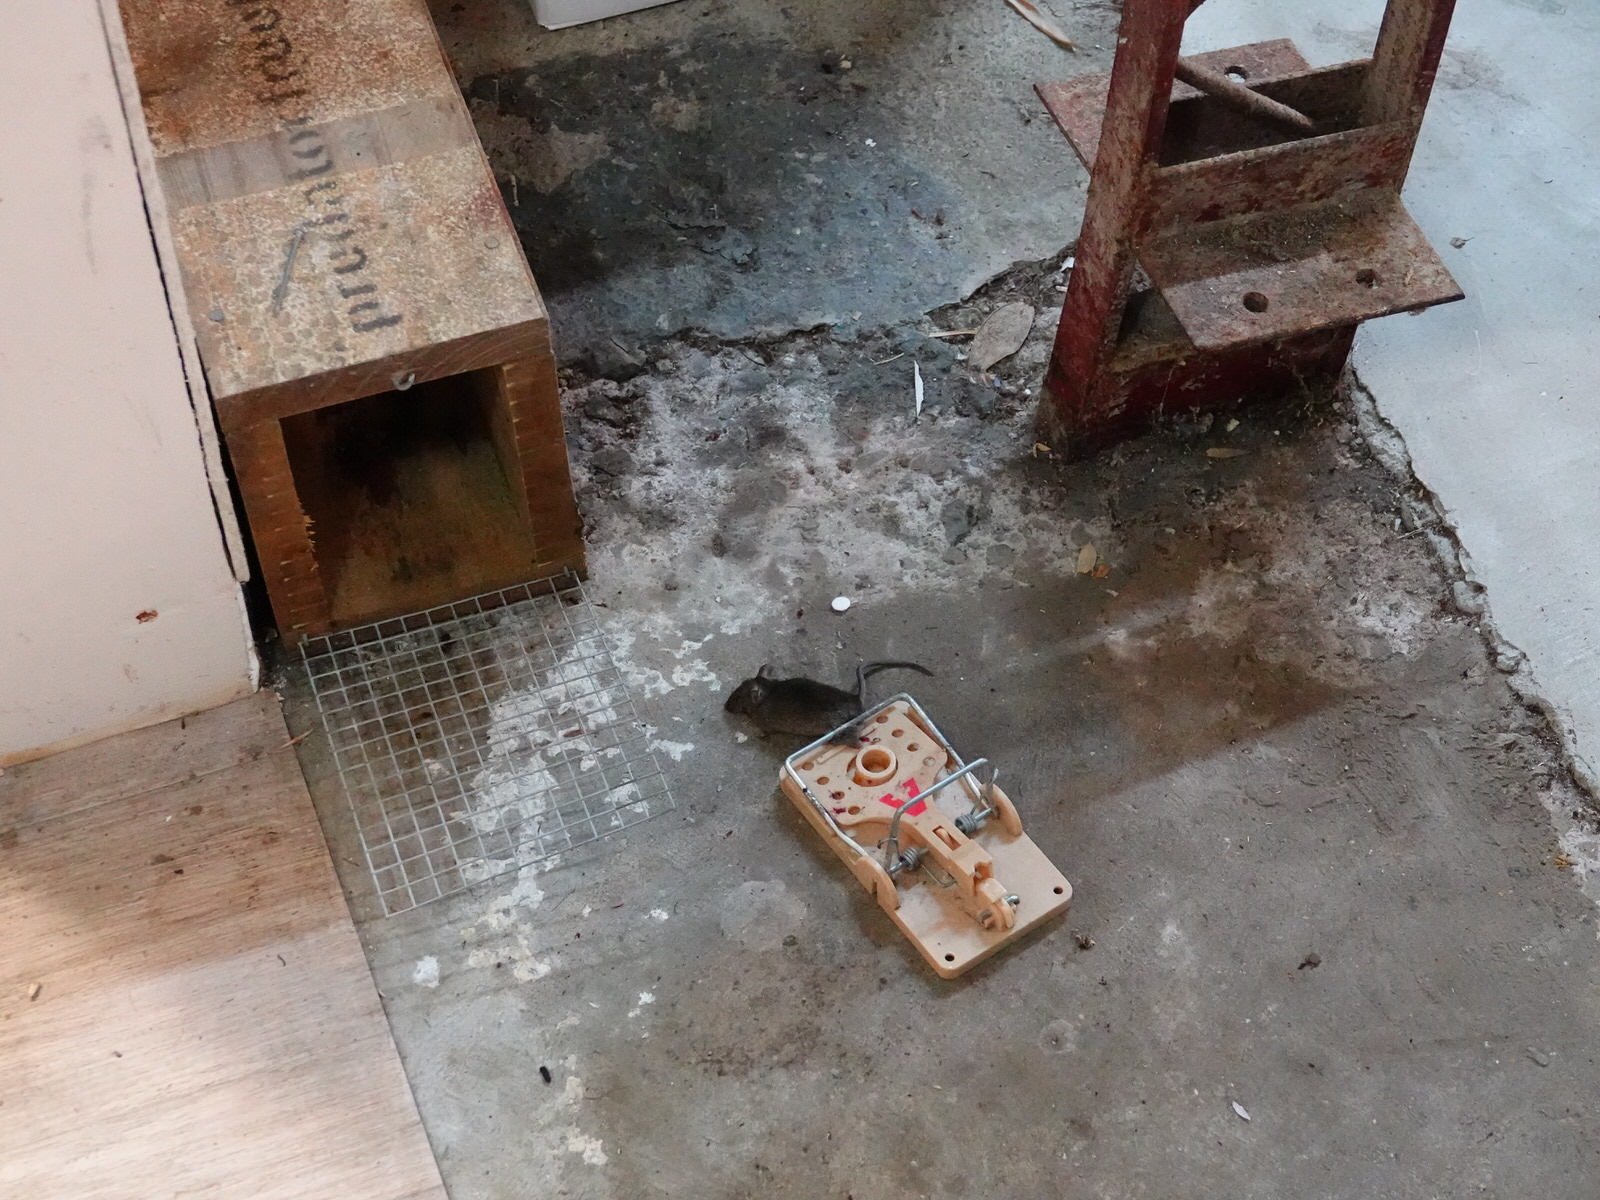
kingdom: Animalia
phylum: Chordata
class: Mammalia
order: Rodentia
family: Muridae
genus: Mus
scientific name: Mus musculus
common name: House mouse
